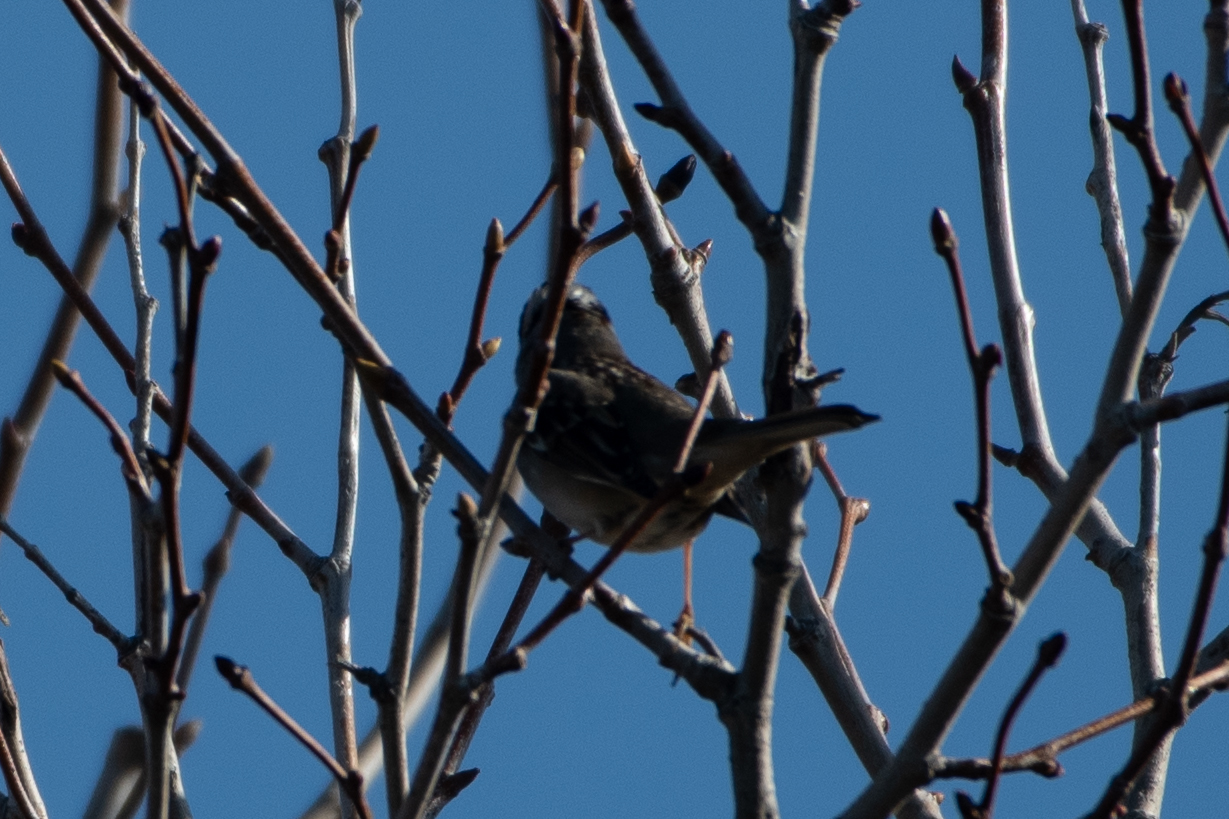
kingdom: Animalia
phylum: Chordata
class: Aves
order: Passeriformes
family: Passerellidae
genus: Zonotrichia
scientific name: Zonotrichia leucophrys
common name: White-crowned sparrow
